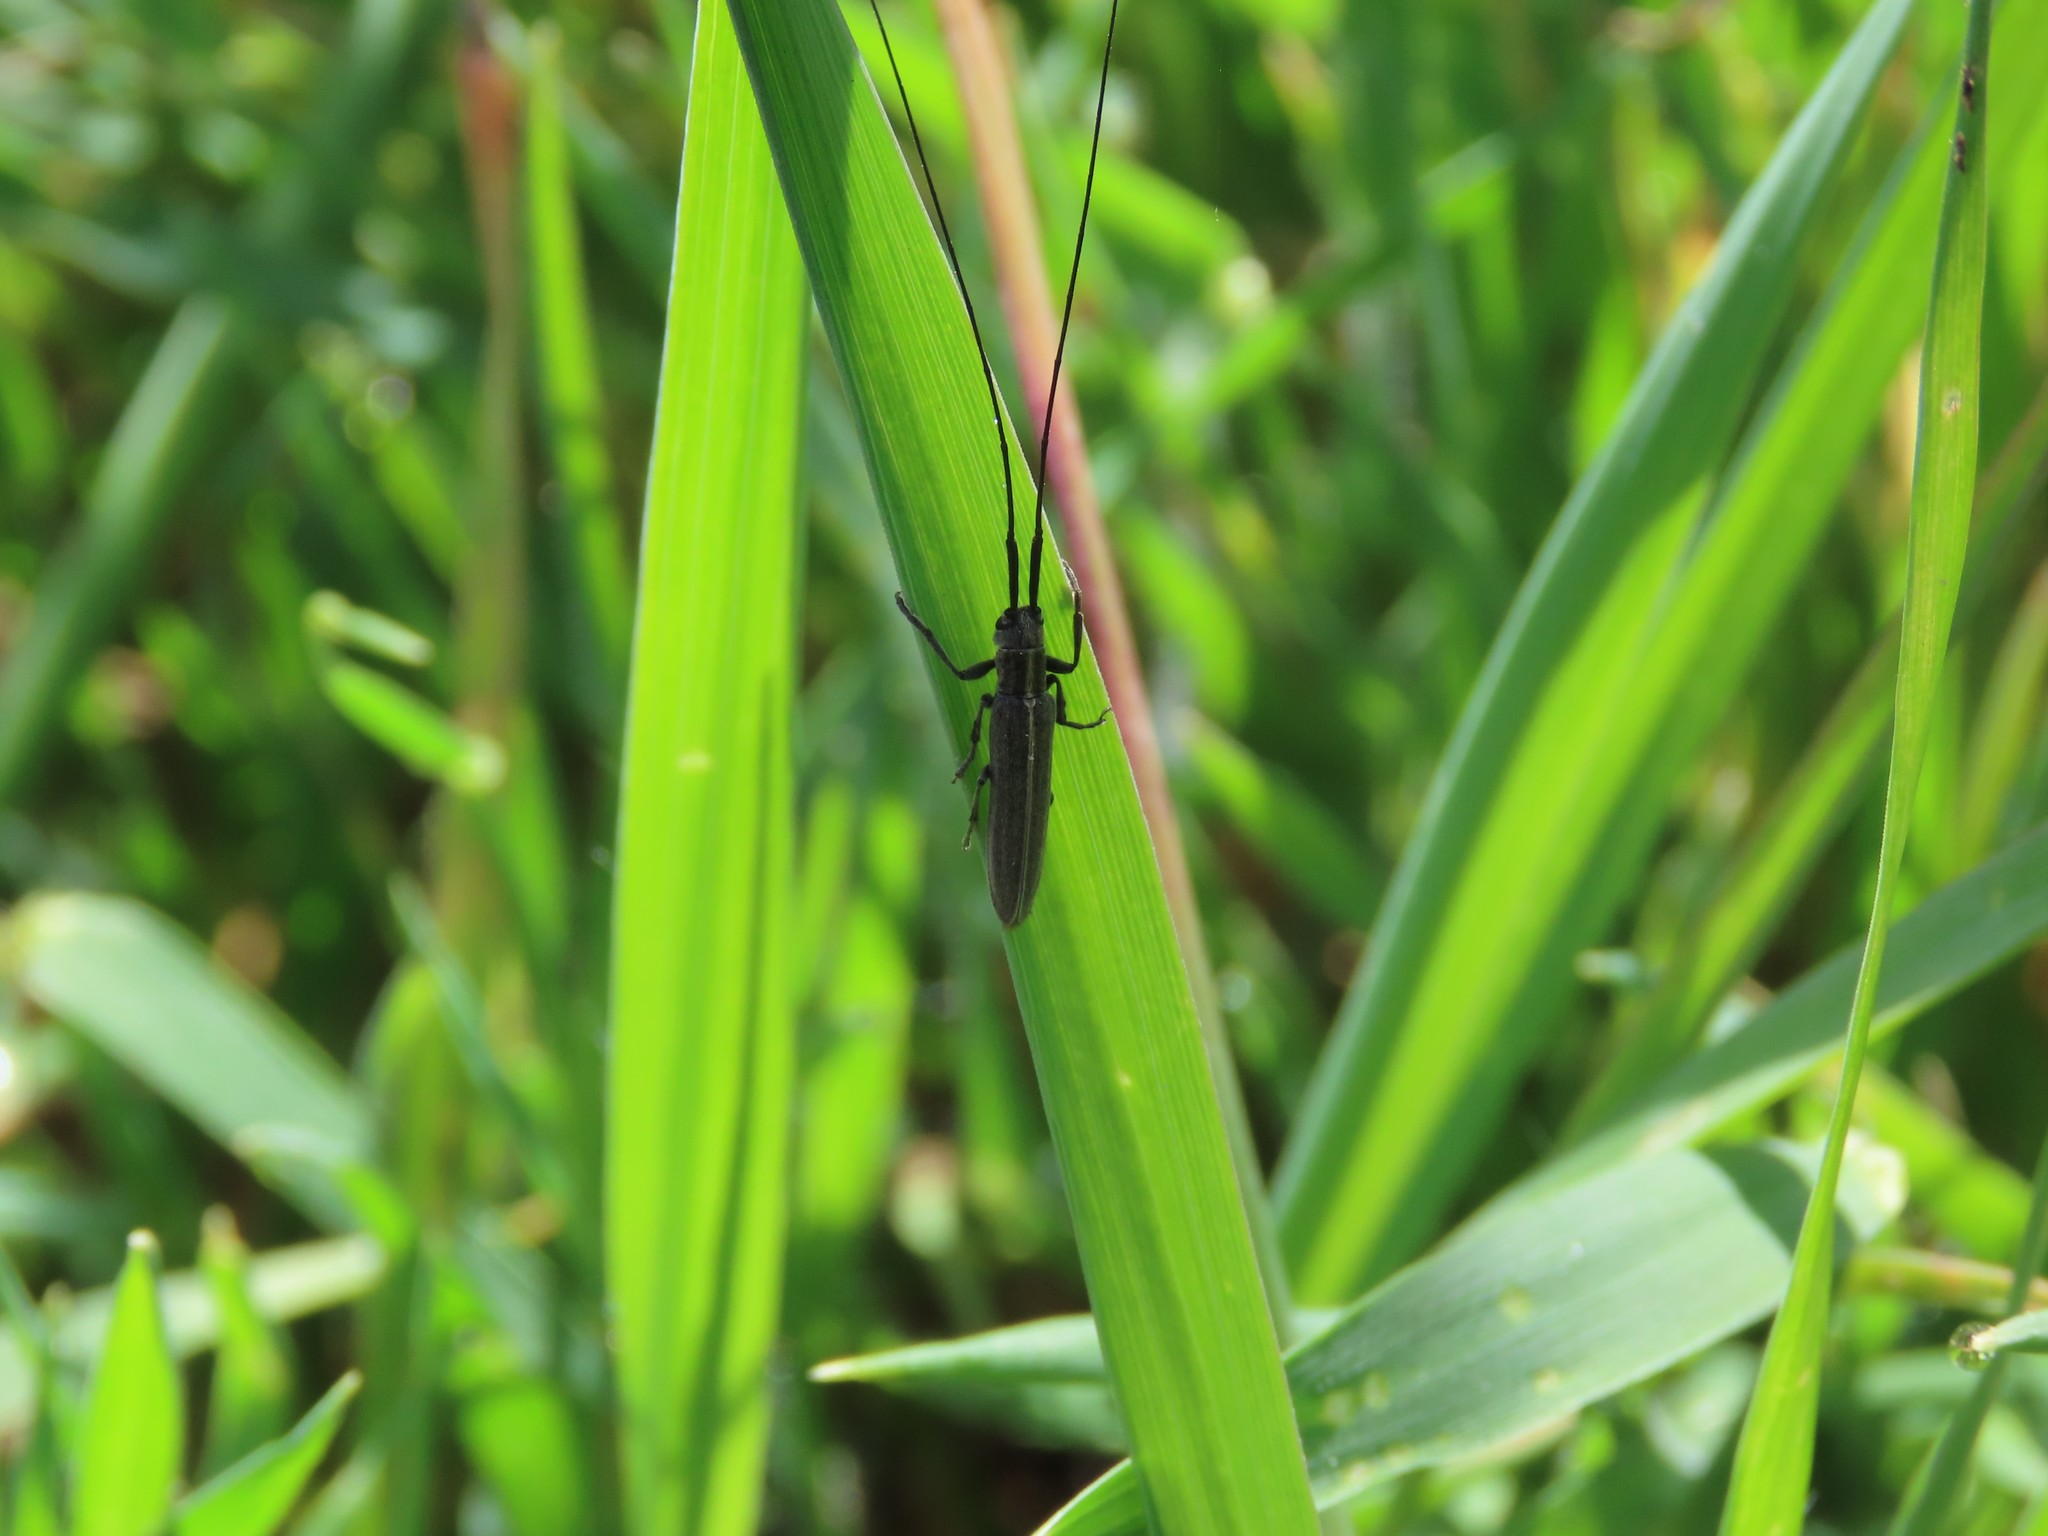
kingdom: Animalia
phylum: Arthropoda
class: Insecta
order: Coleoptera
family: Cerambycidae
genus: Calamobius
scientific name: Calamobius filum
